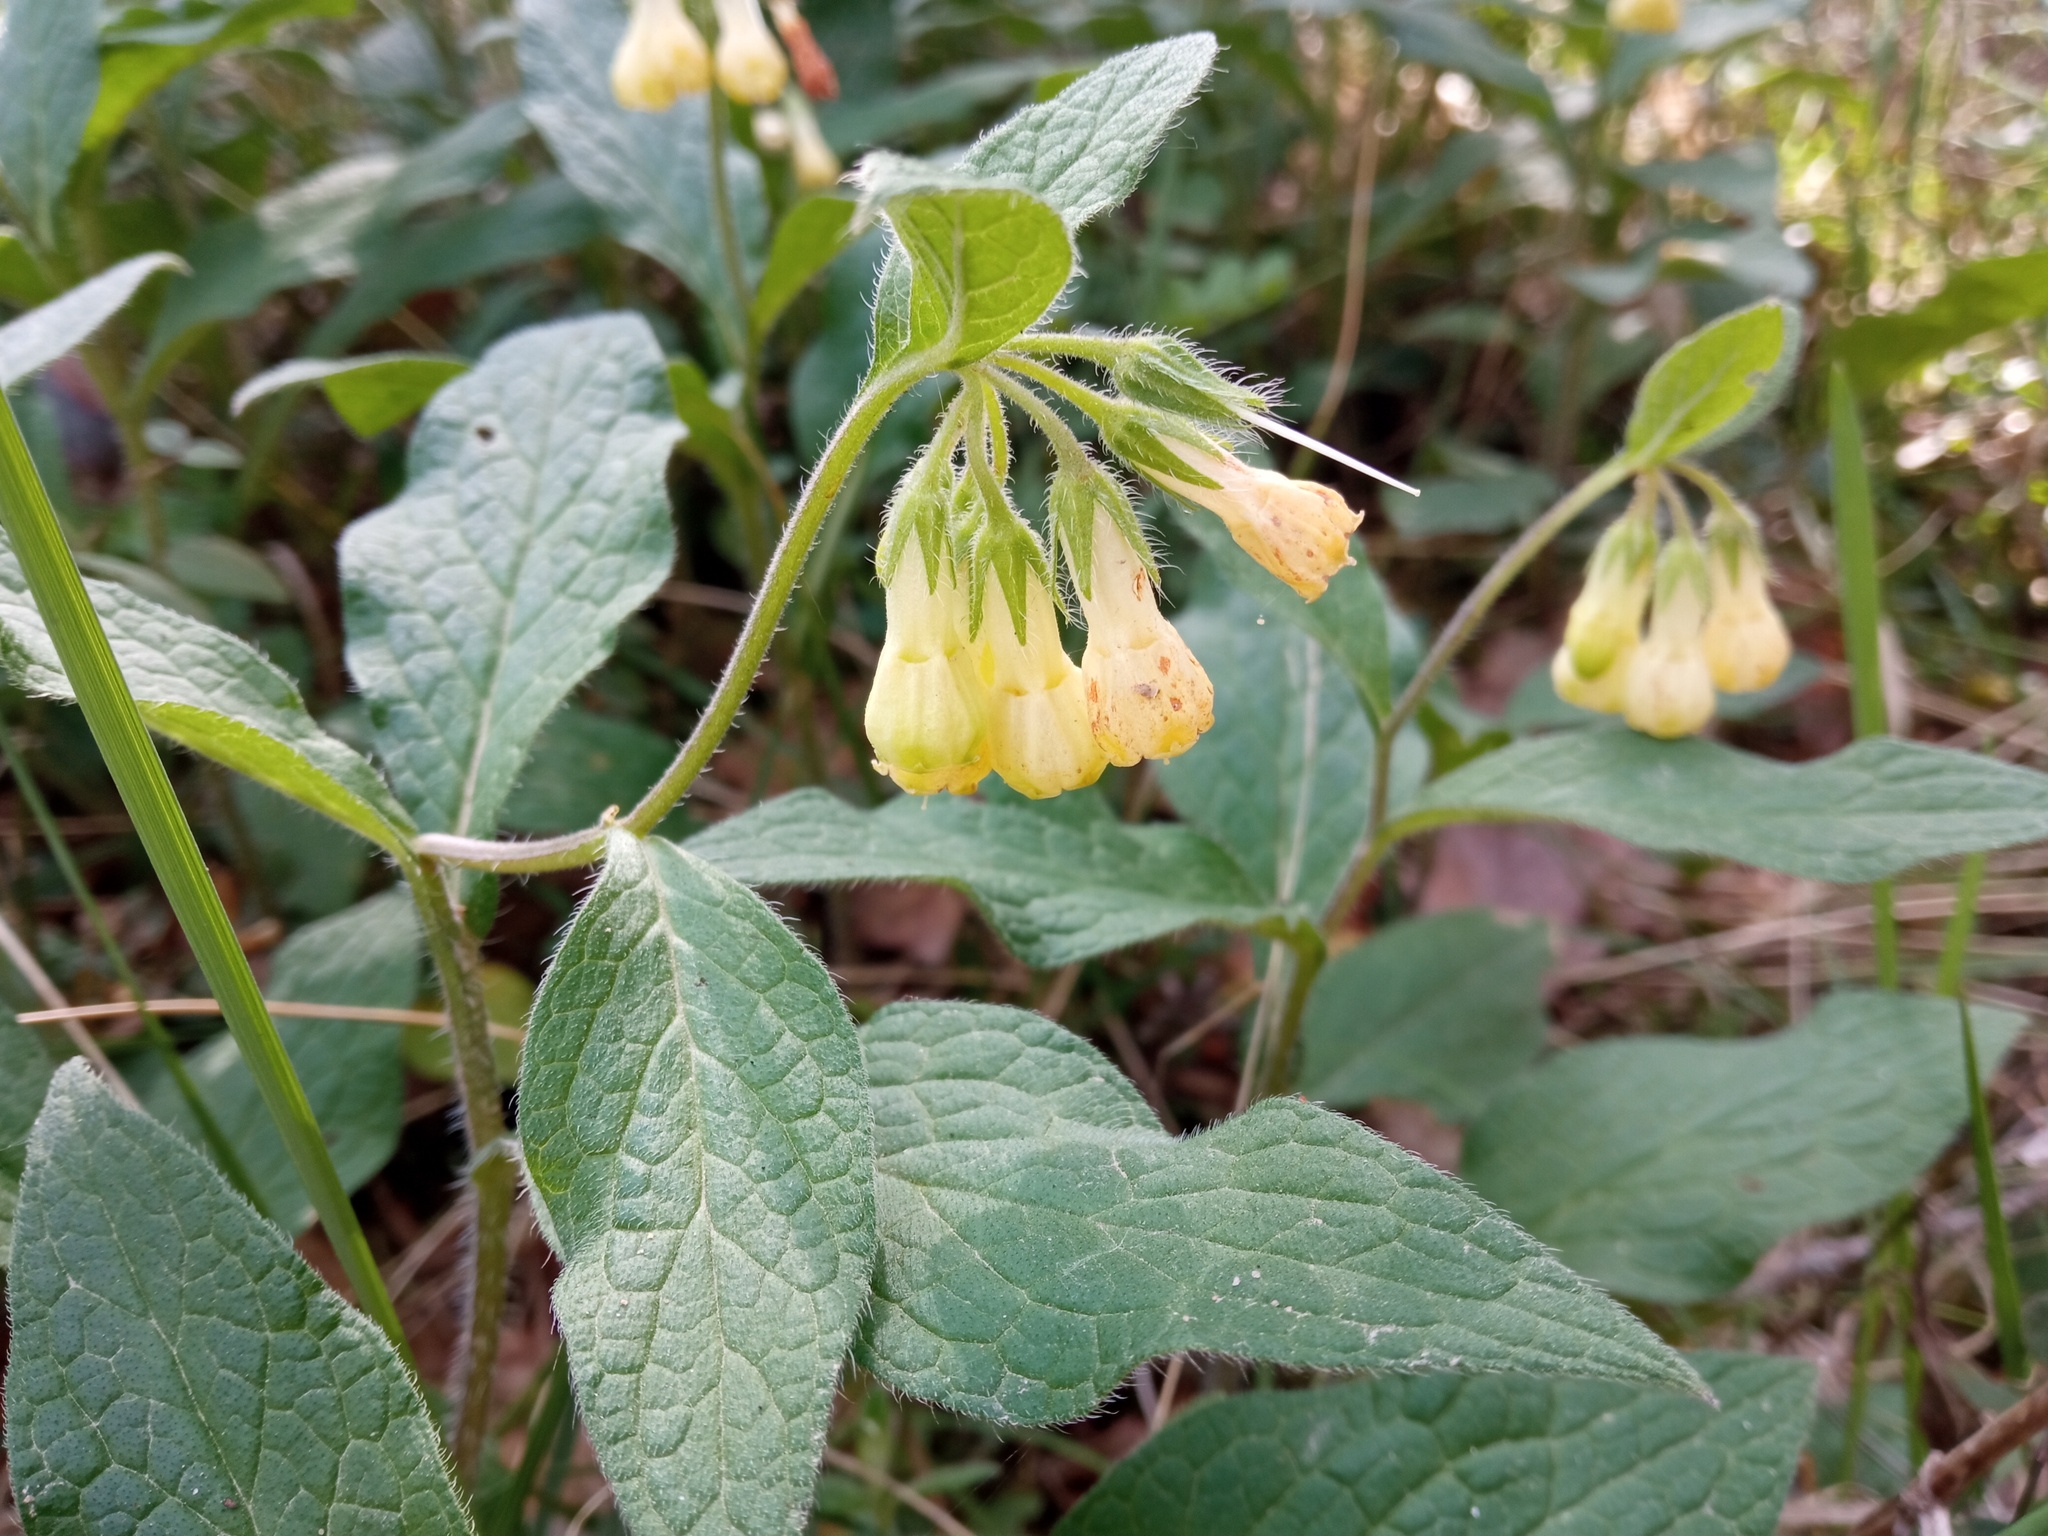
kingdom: Plantae
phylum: Tracheophyta
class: Magnoliopsida
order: Boraginales
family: Boraginaceae
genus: Symphytum
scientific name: Symphytum tuberosum
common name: Tuberous comfrey
